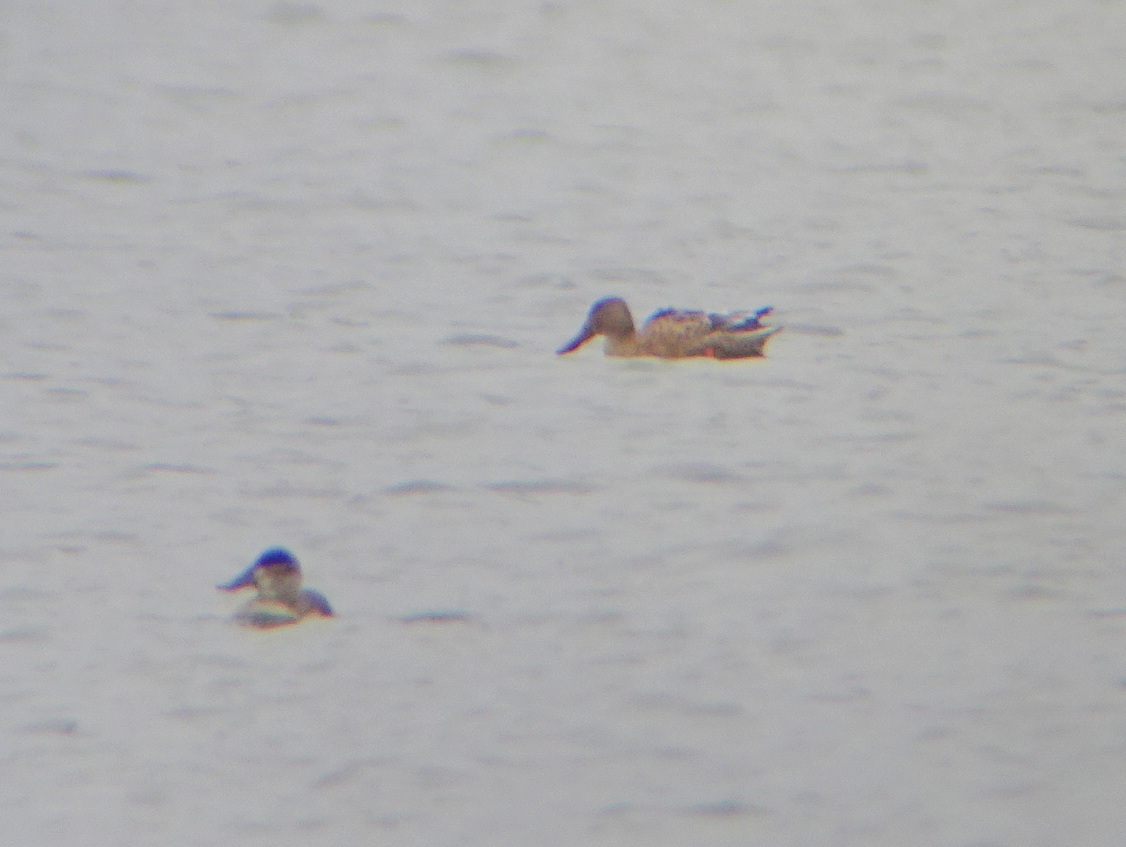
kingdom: Animalia
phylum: Chordata
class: Aves
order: Anseriformes
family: Anatidae
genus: Spatula
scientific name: Spatula clypeata
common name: Northern shoveler
